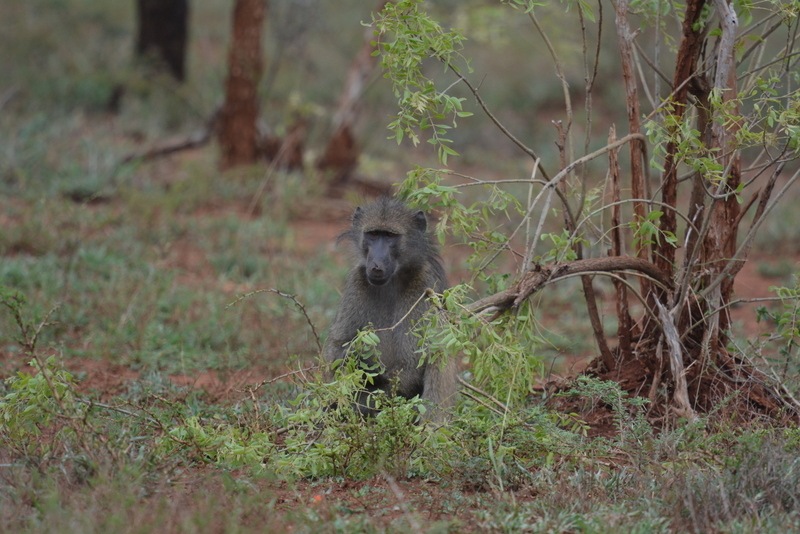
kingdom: Animalia
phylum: Chordata
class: Mammalia
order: Primates
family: Cercopithecidae
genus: Papio
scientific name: Papio ursinus
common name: Chacma baboon
